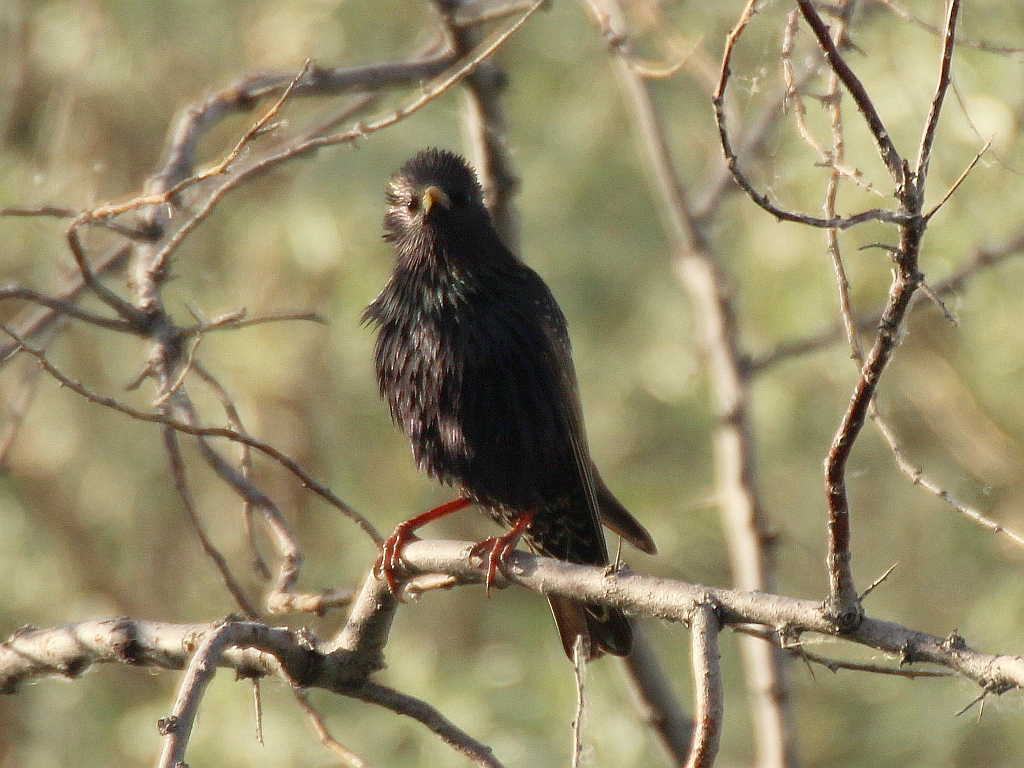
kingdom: Animalia
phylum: Chordata
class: Aves
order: Passeriformes
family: Sturnidae
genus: Sturnus
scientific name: Sturnus vulgaris
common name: Common starling
